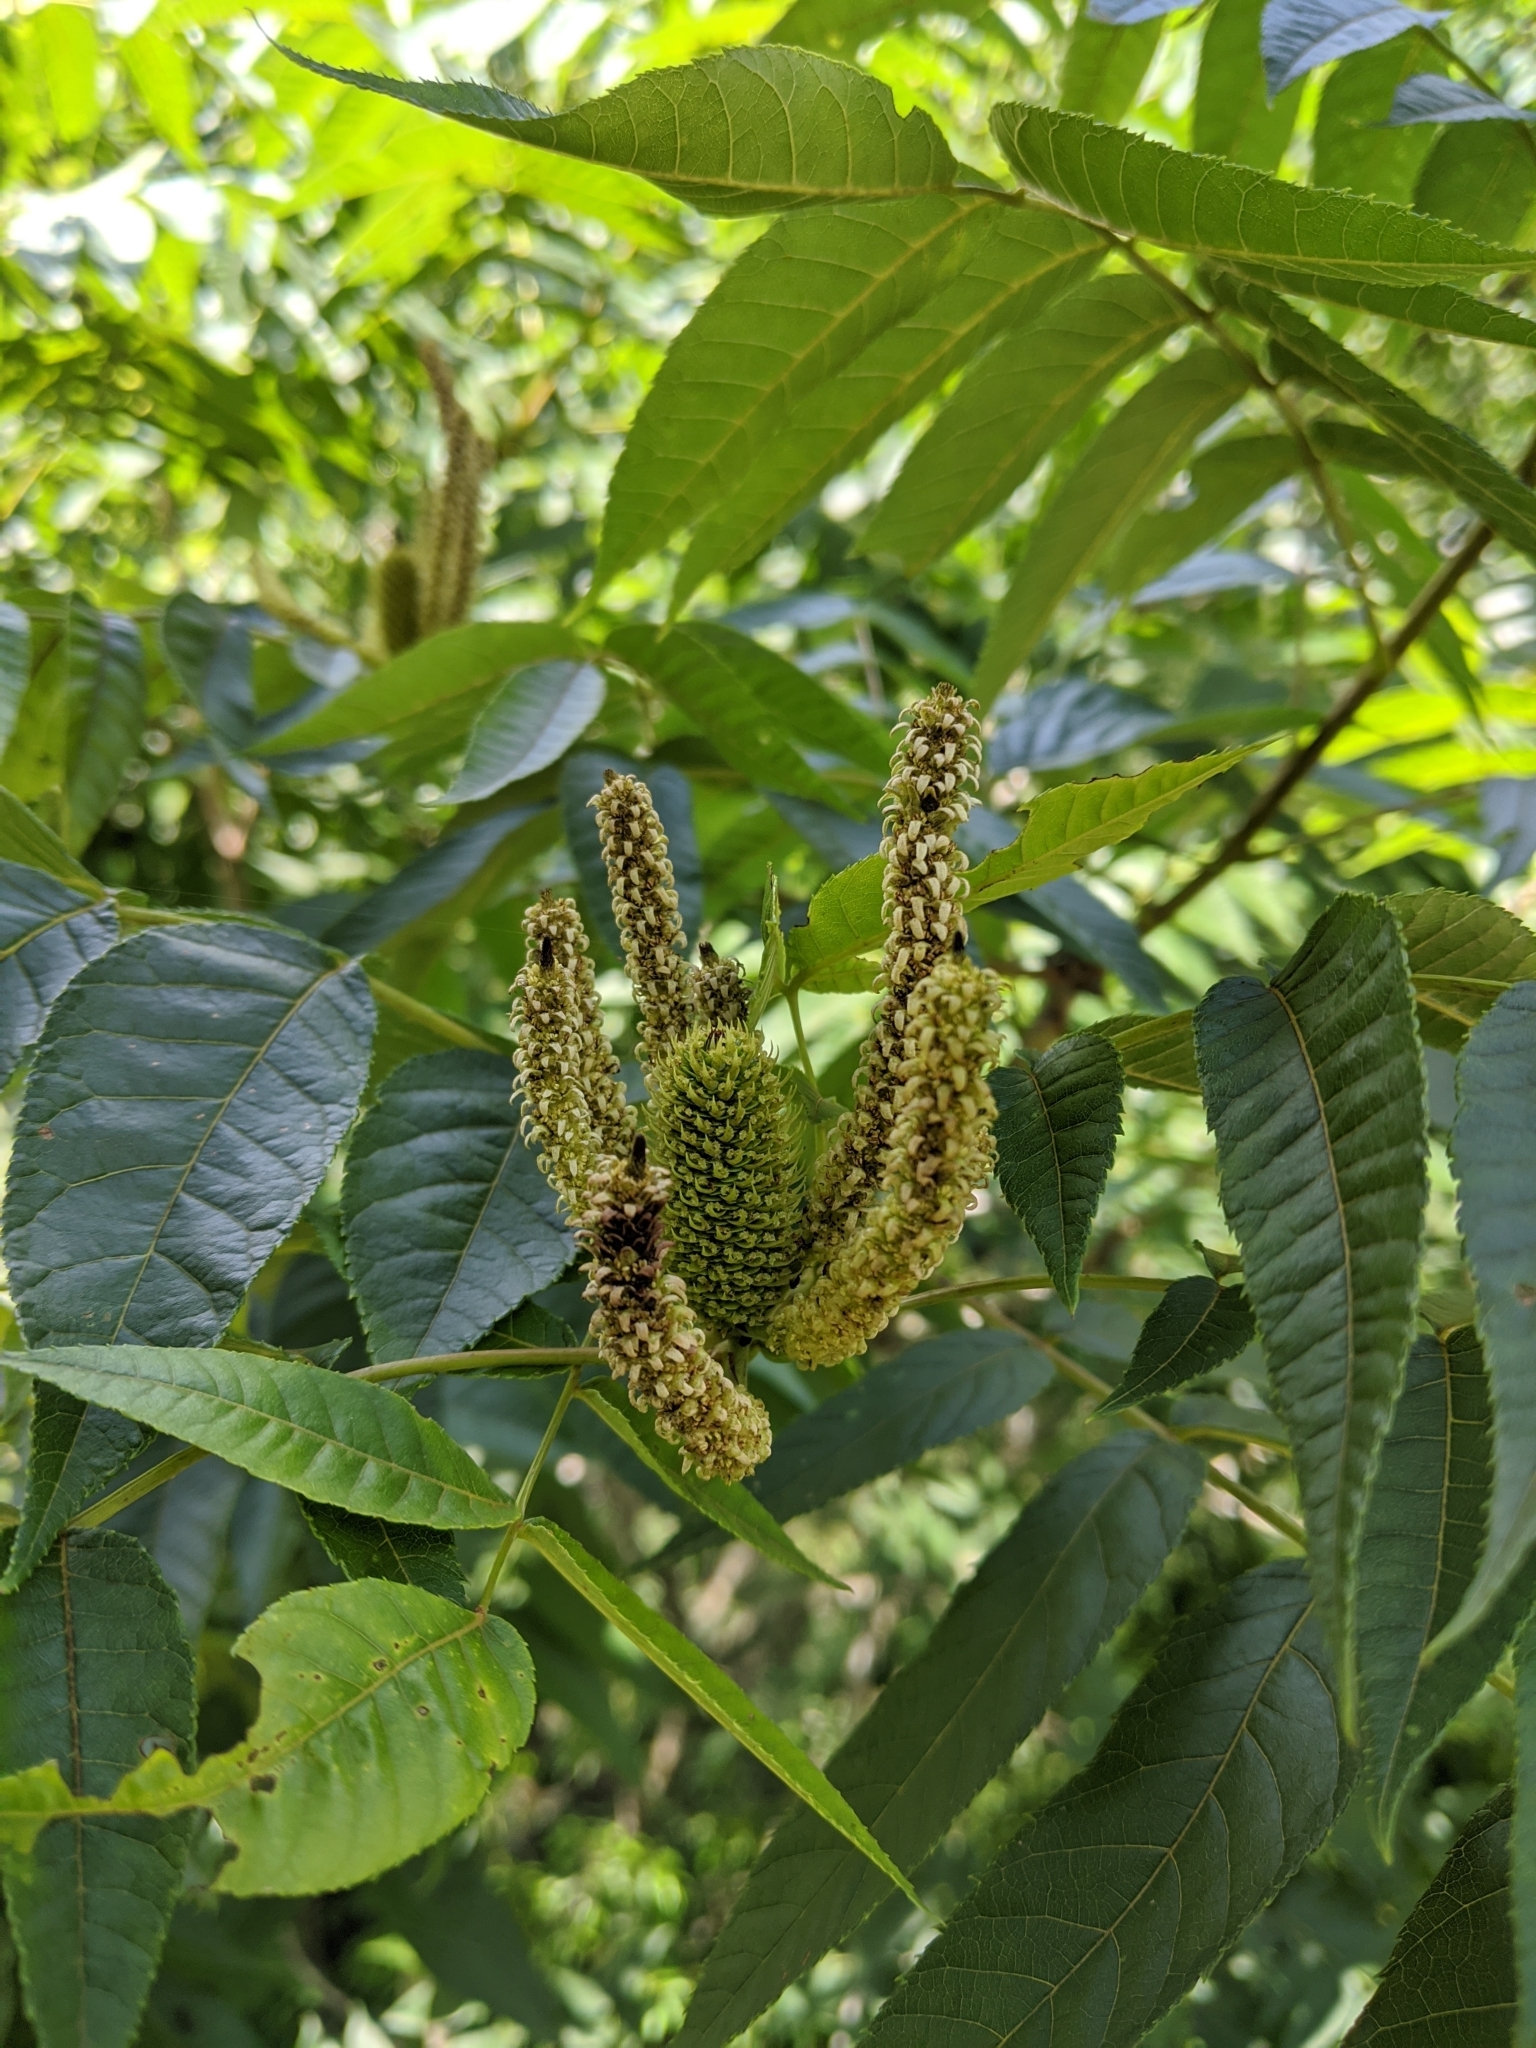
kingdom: Plantae
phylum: Tracheophyta
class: Magnoliopsida
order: Fagales
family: Juglandaceae
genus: Platycarya
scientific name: Platycarya strobilacea
